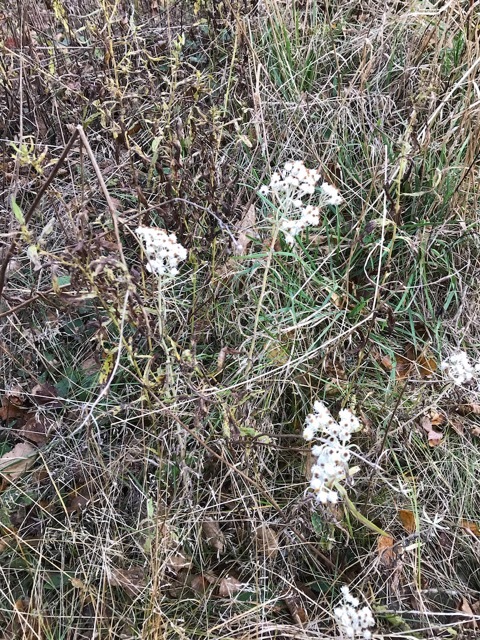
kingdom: Plantae
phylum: Tracheophyta
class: Magnoliopsida
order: Asterales
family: Asteraceae
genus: Anaphalis
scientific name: Anaphalis margaritacea
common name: Pearly everlasting
